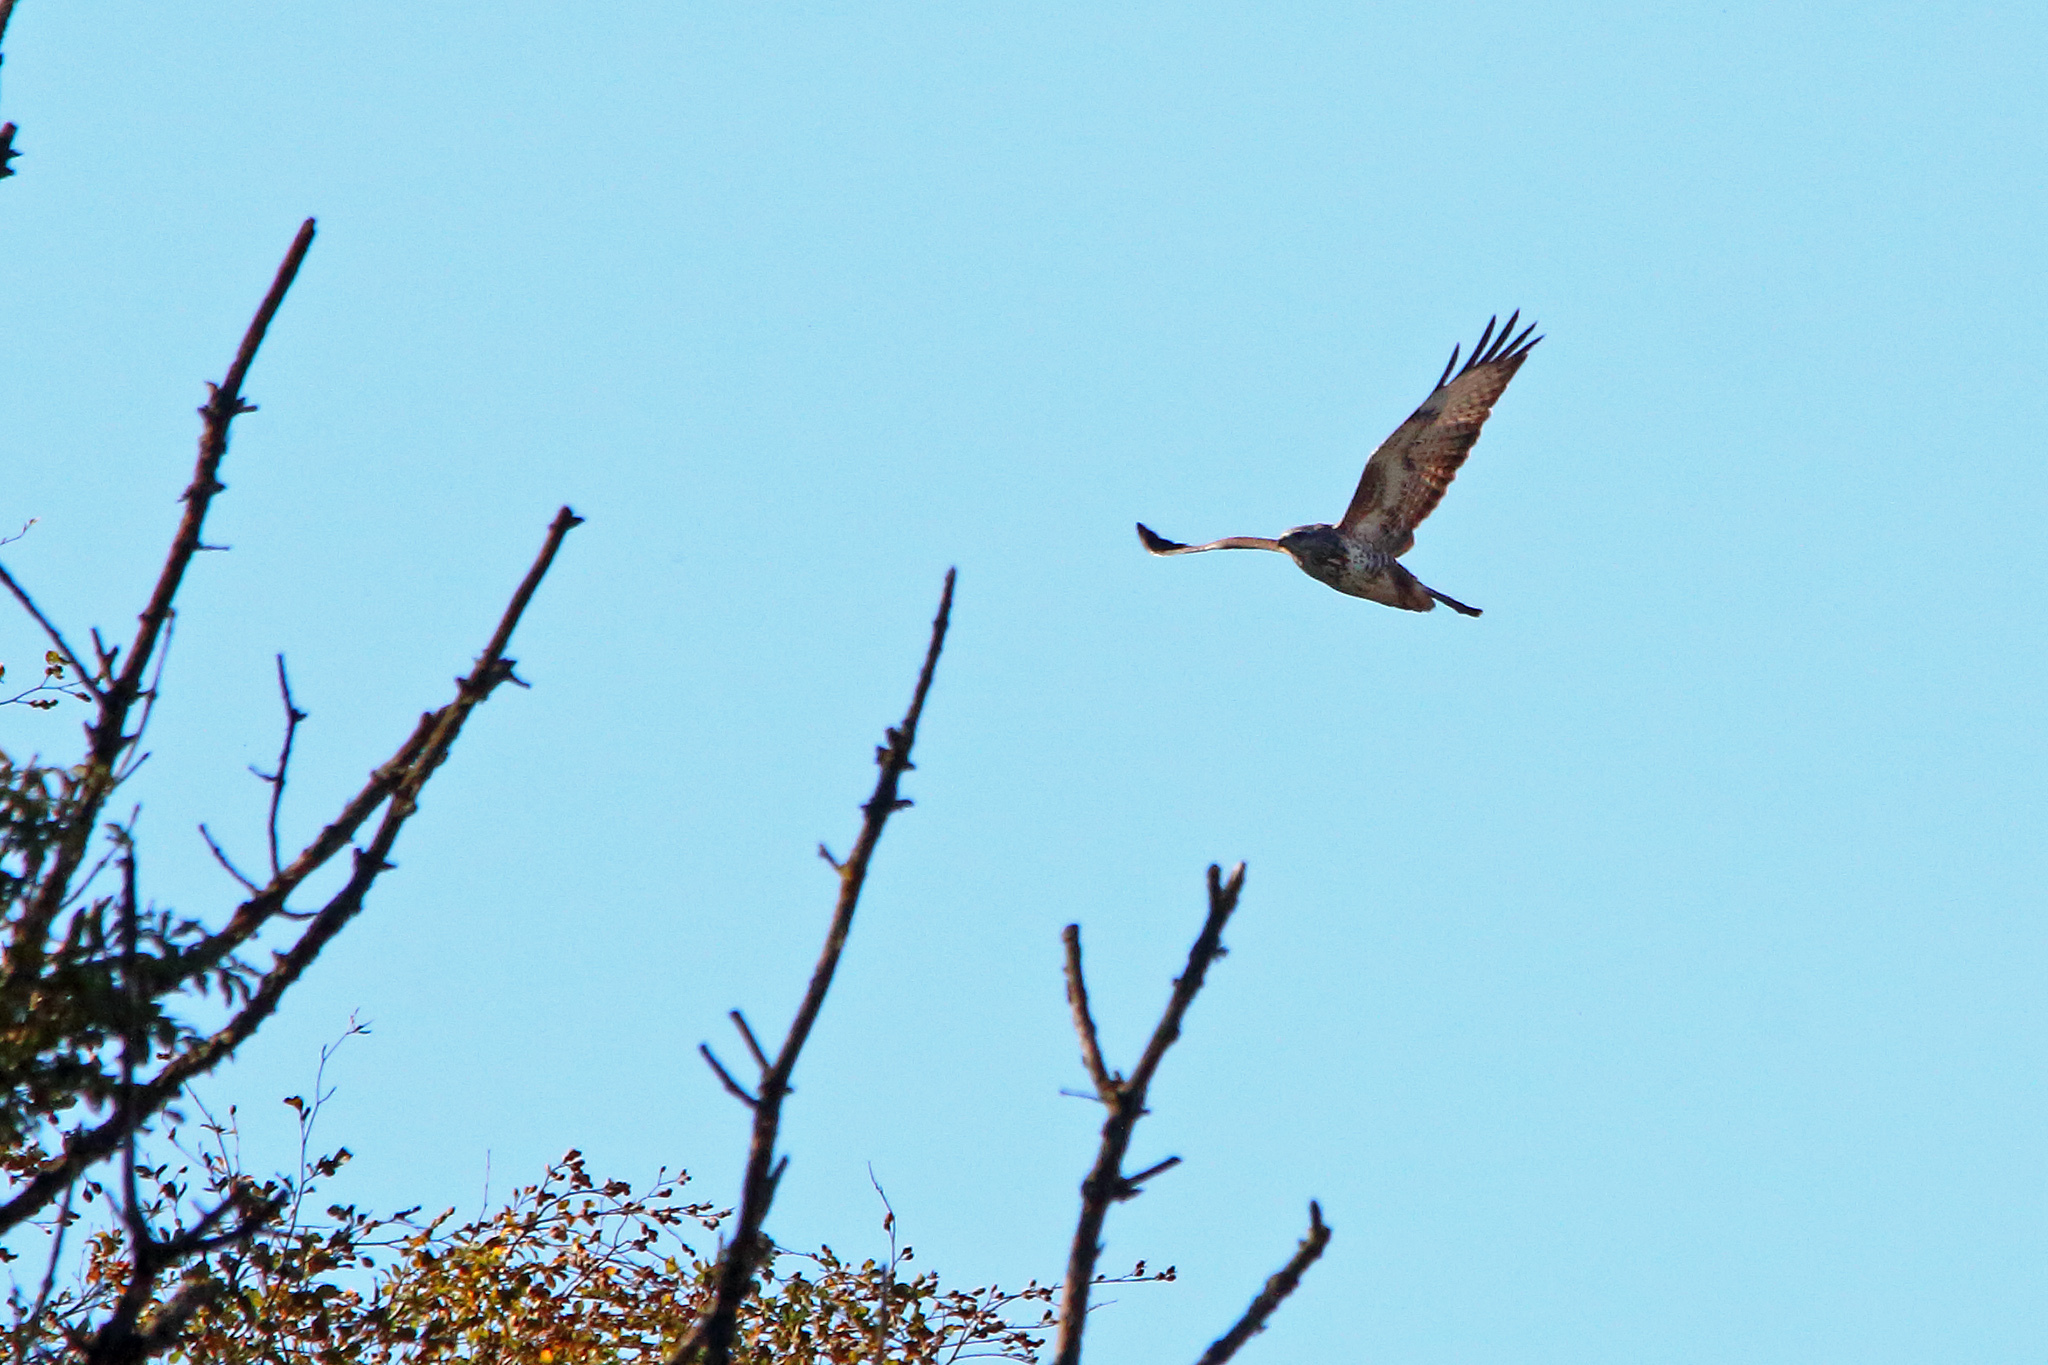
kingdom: Animalia
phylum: Chordata
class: Aves
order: Accipitriformes
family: Accipitridae
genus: Buteo
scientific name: Buteo buteo
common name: Common buzzard
